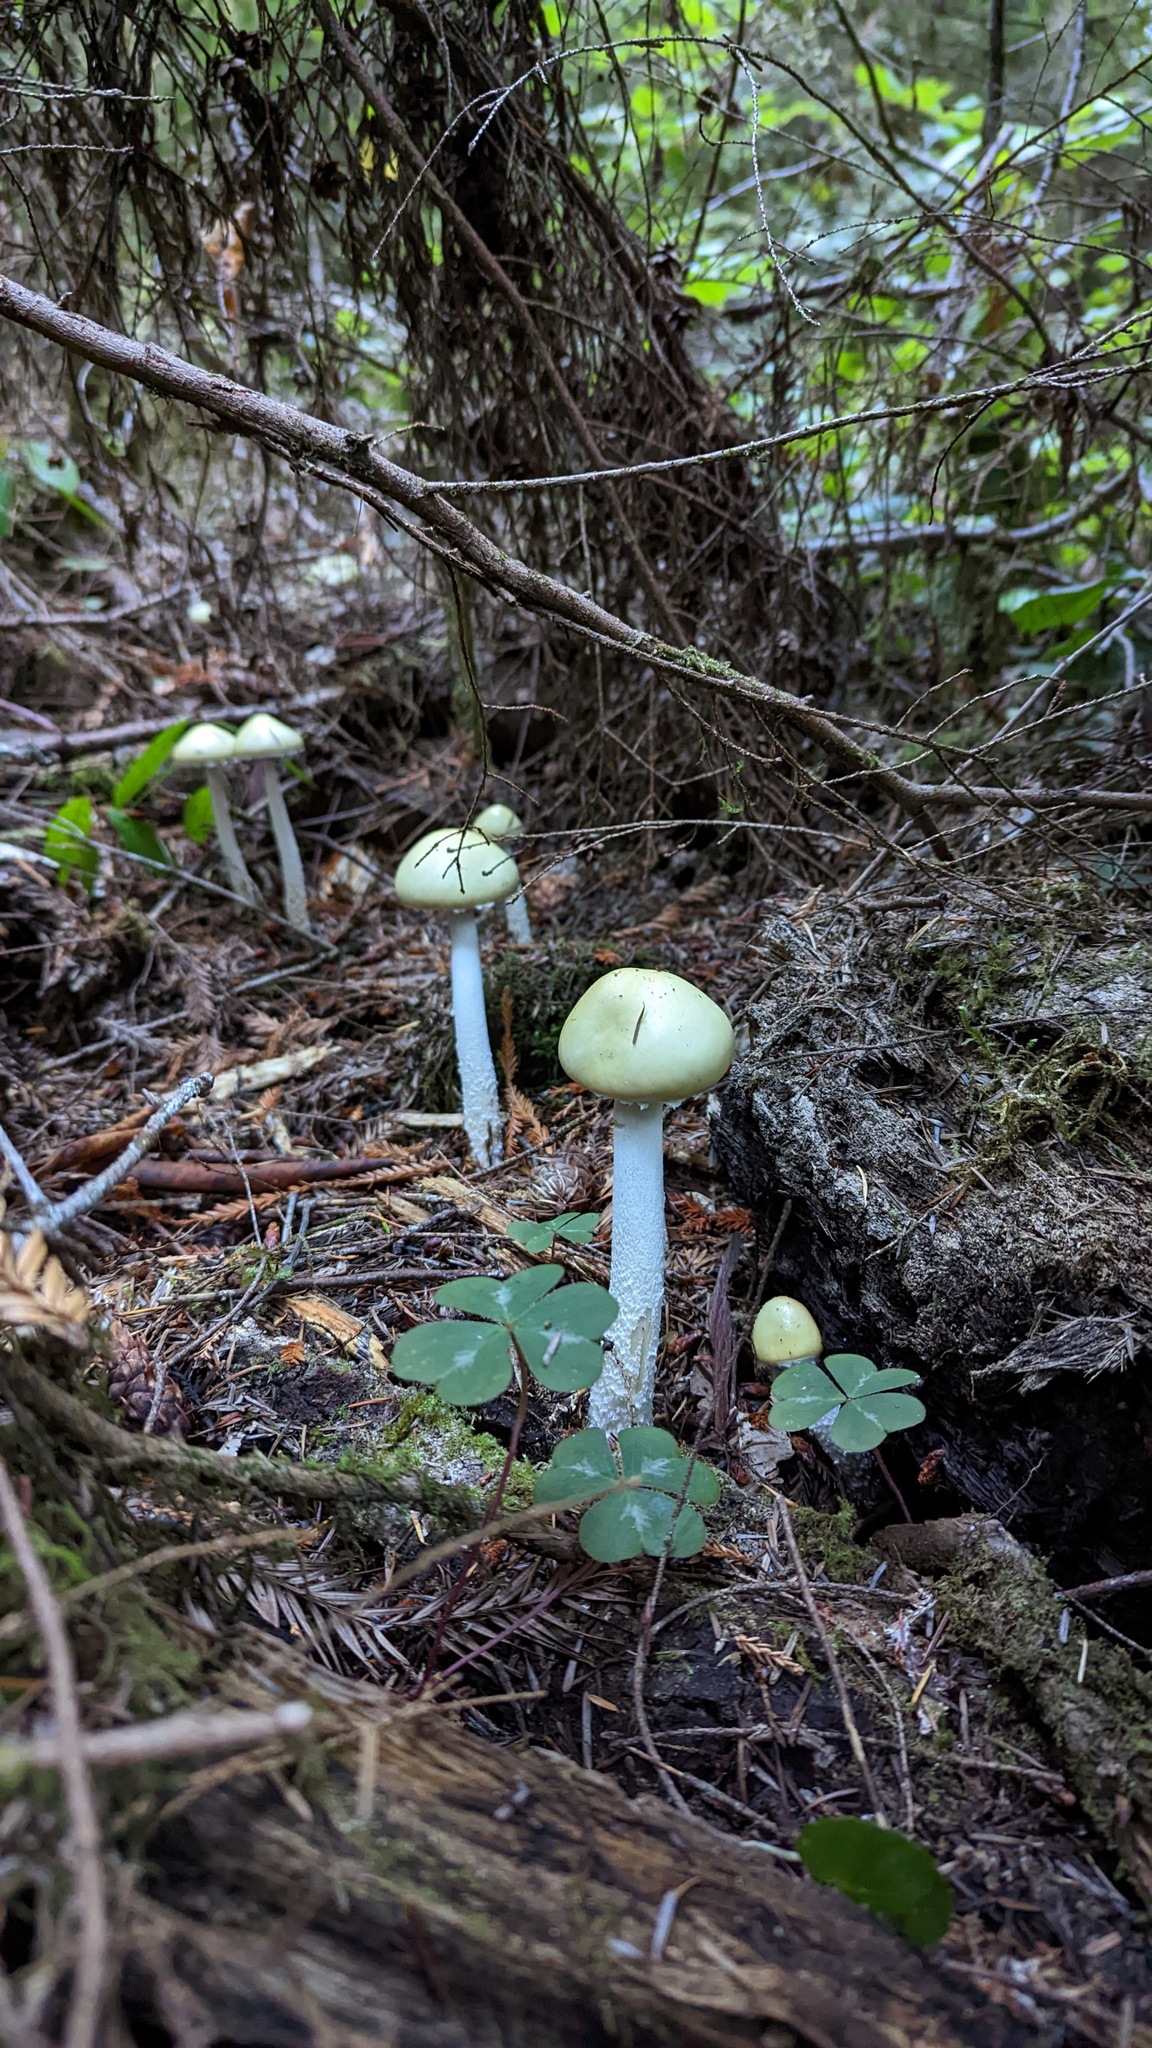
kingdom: Fungi
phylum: Basidiomycota
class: Agaricomycetes
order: Agaricales
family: Strophariaceae
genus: Stropharia
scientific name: Stropharia ambigua
